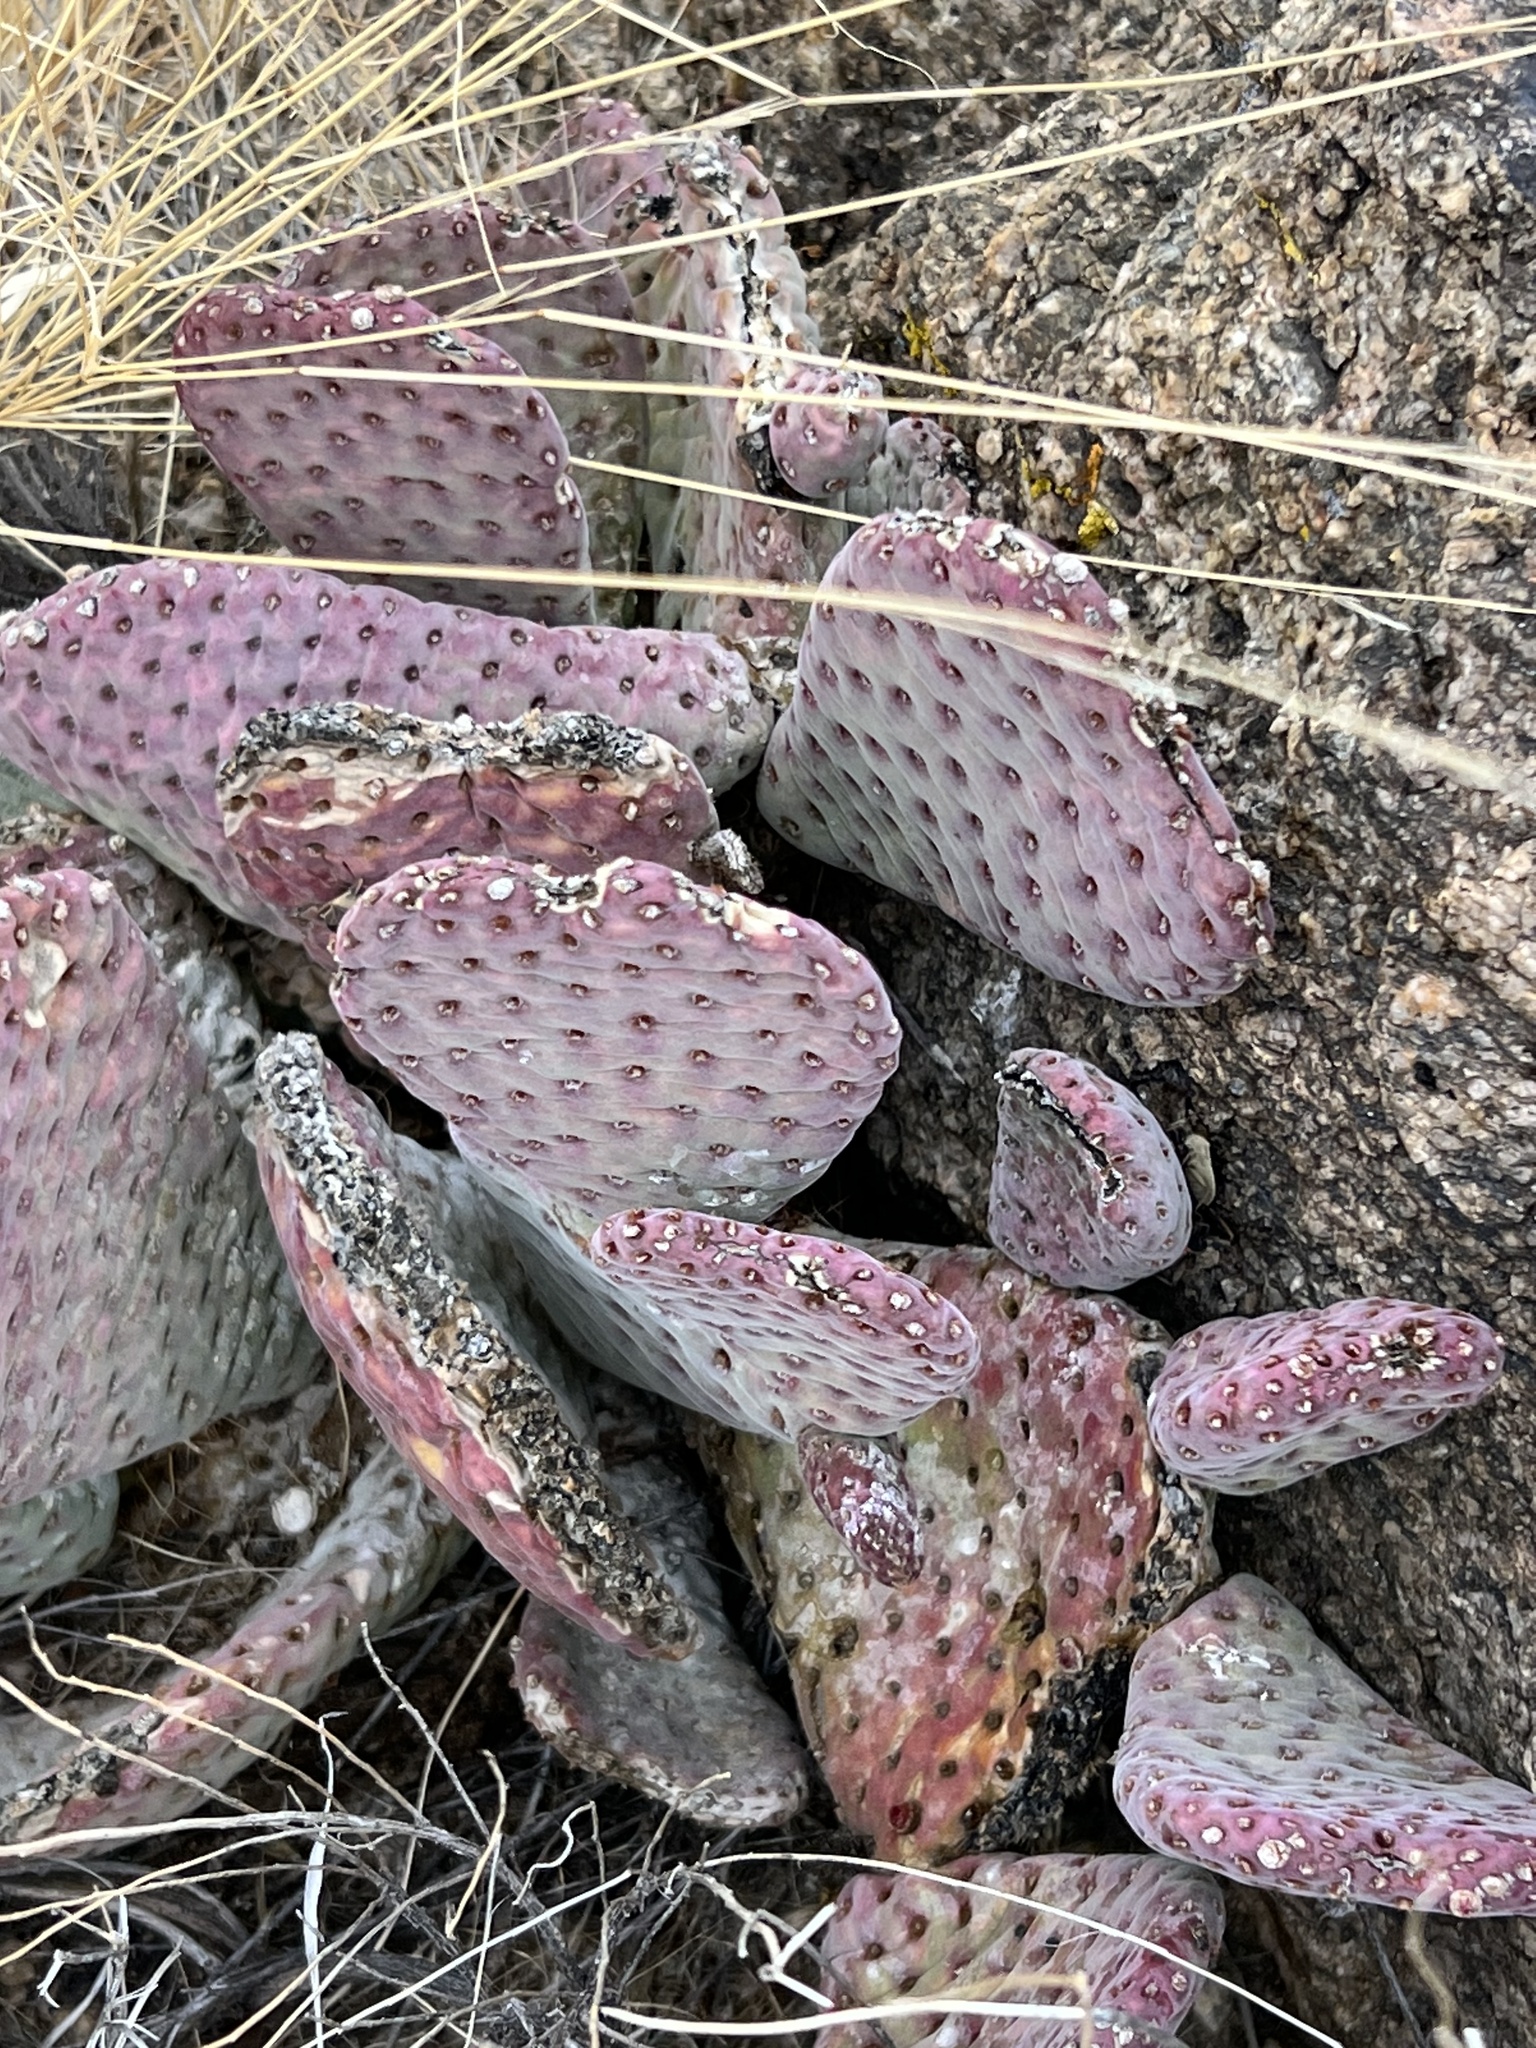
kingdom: Plantae
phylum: Tracheophyta
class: Magnoliopsida
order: Caryophyllales
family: Cactaceae
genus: Opuntia
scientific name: Opuntia basilaris
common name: Beavertail prickly-pear
